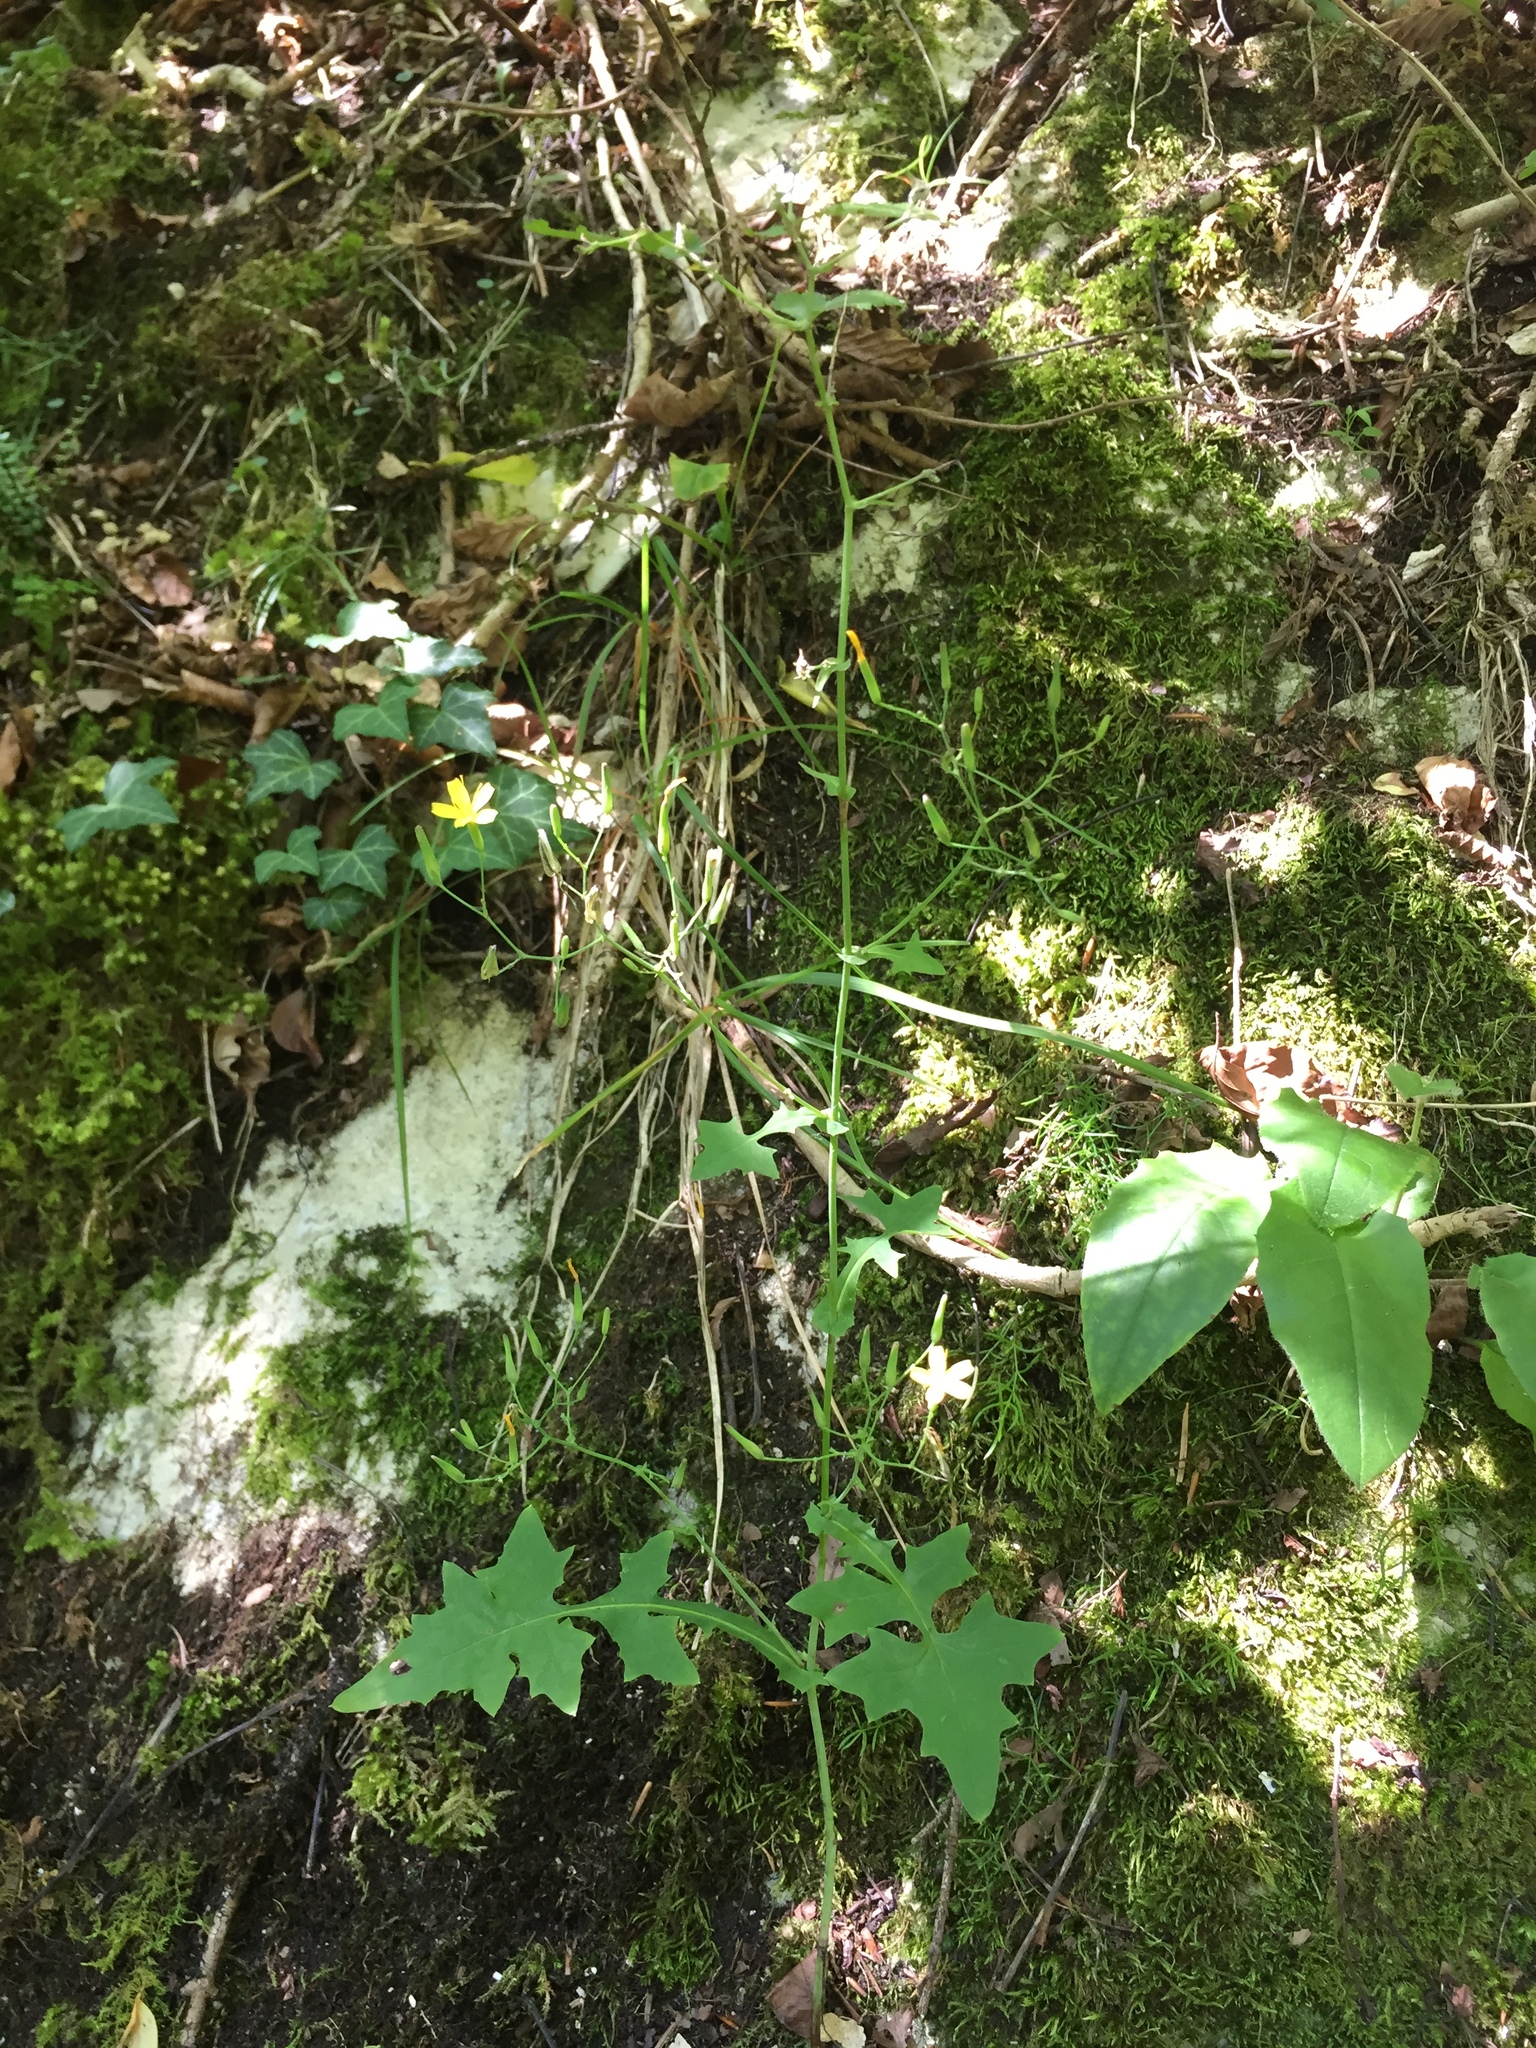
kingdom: Plantae
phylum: Tracheophyta
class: Magnoliopsida
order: Asterales
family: Asteraceae
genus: Mycelis
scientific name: Mycelis muralis
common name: Wall lettuce
